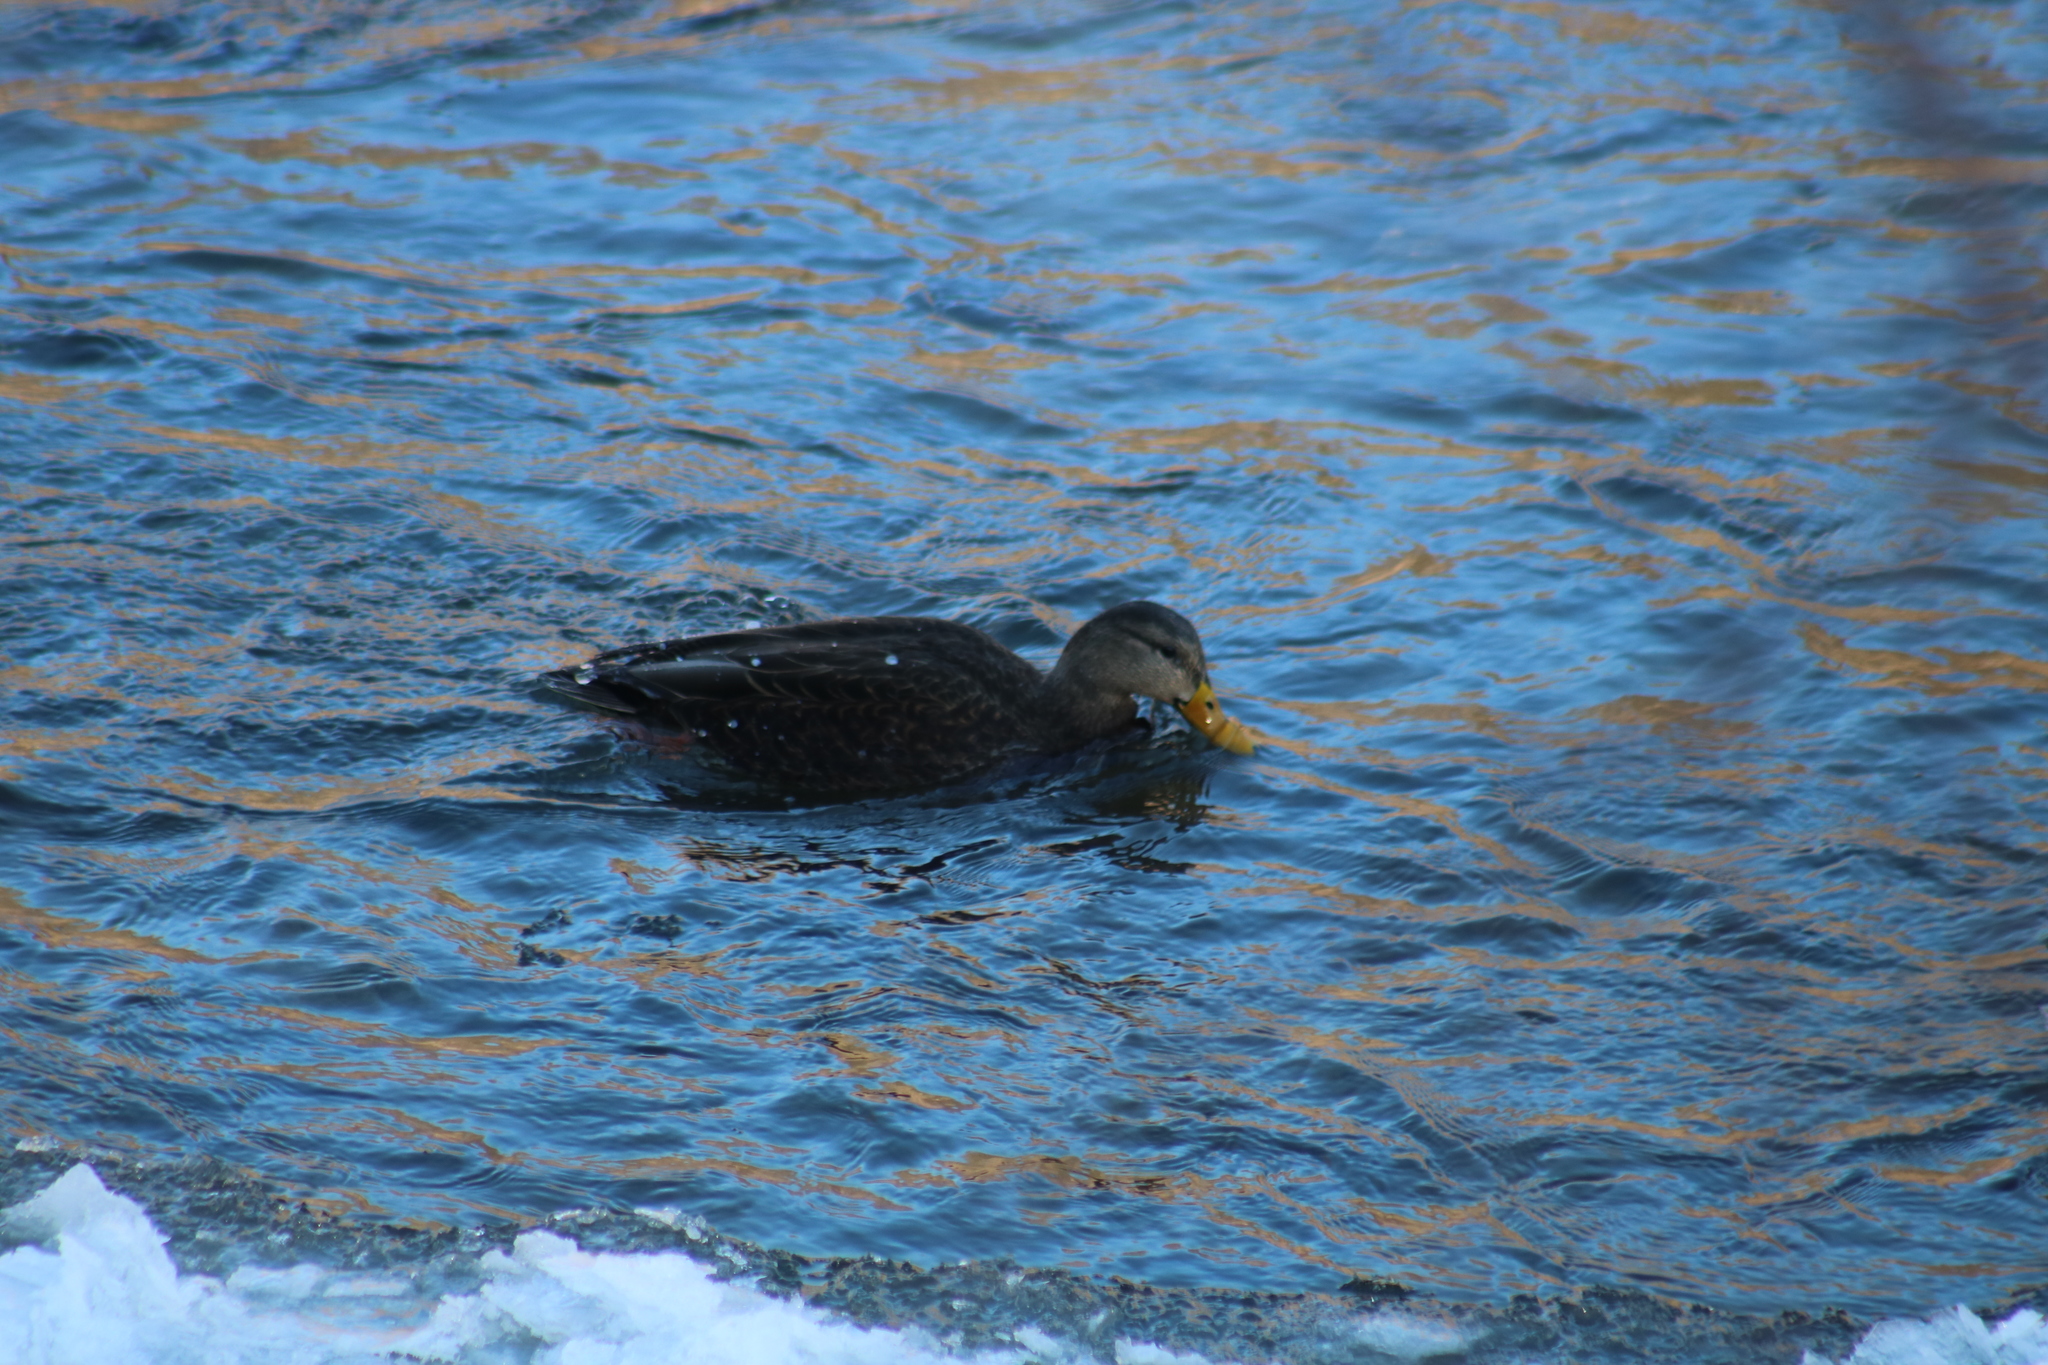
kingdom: Animalia
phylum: Chordata
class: Aves
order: Anseriformes
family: Anatidae
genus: Anas
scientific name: Anas rubripes
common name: American black duck
